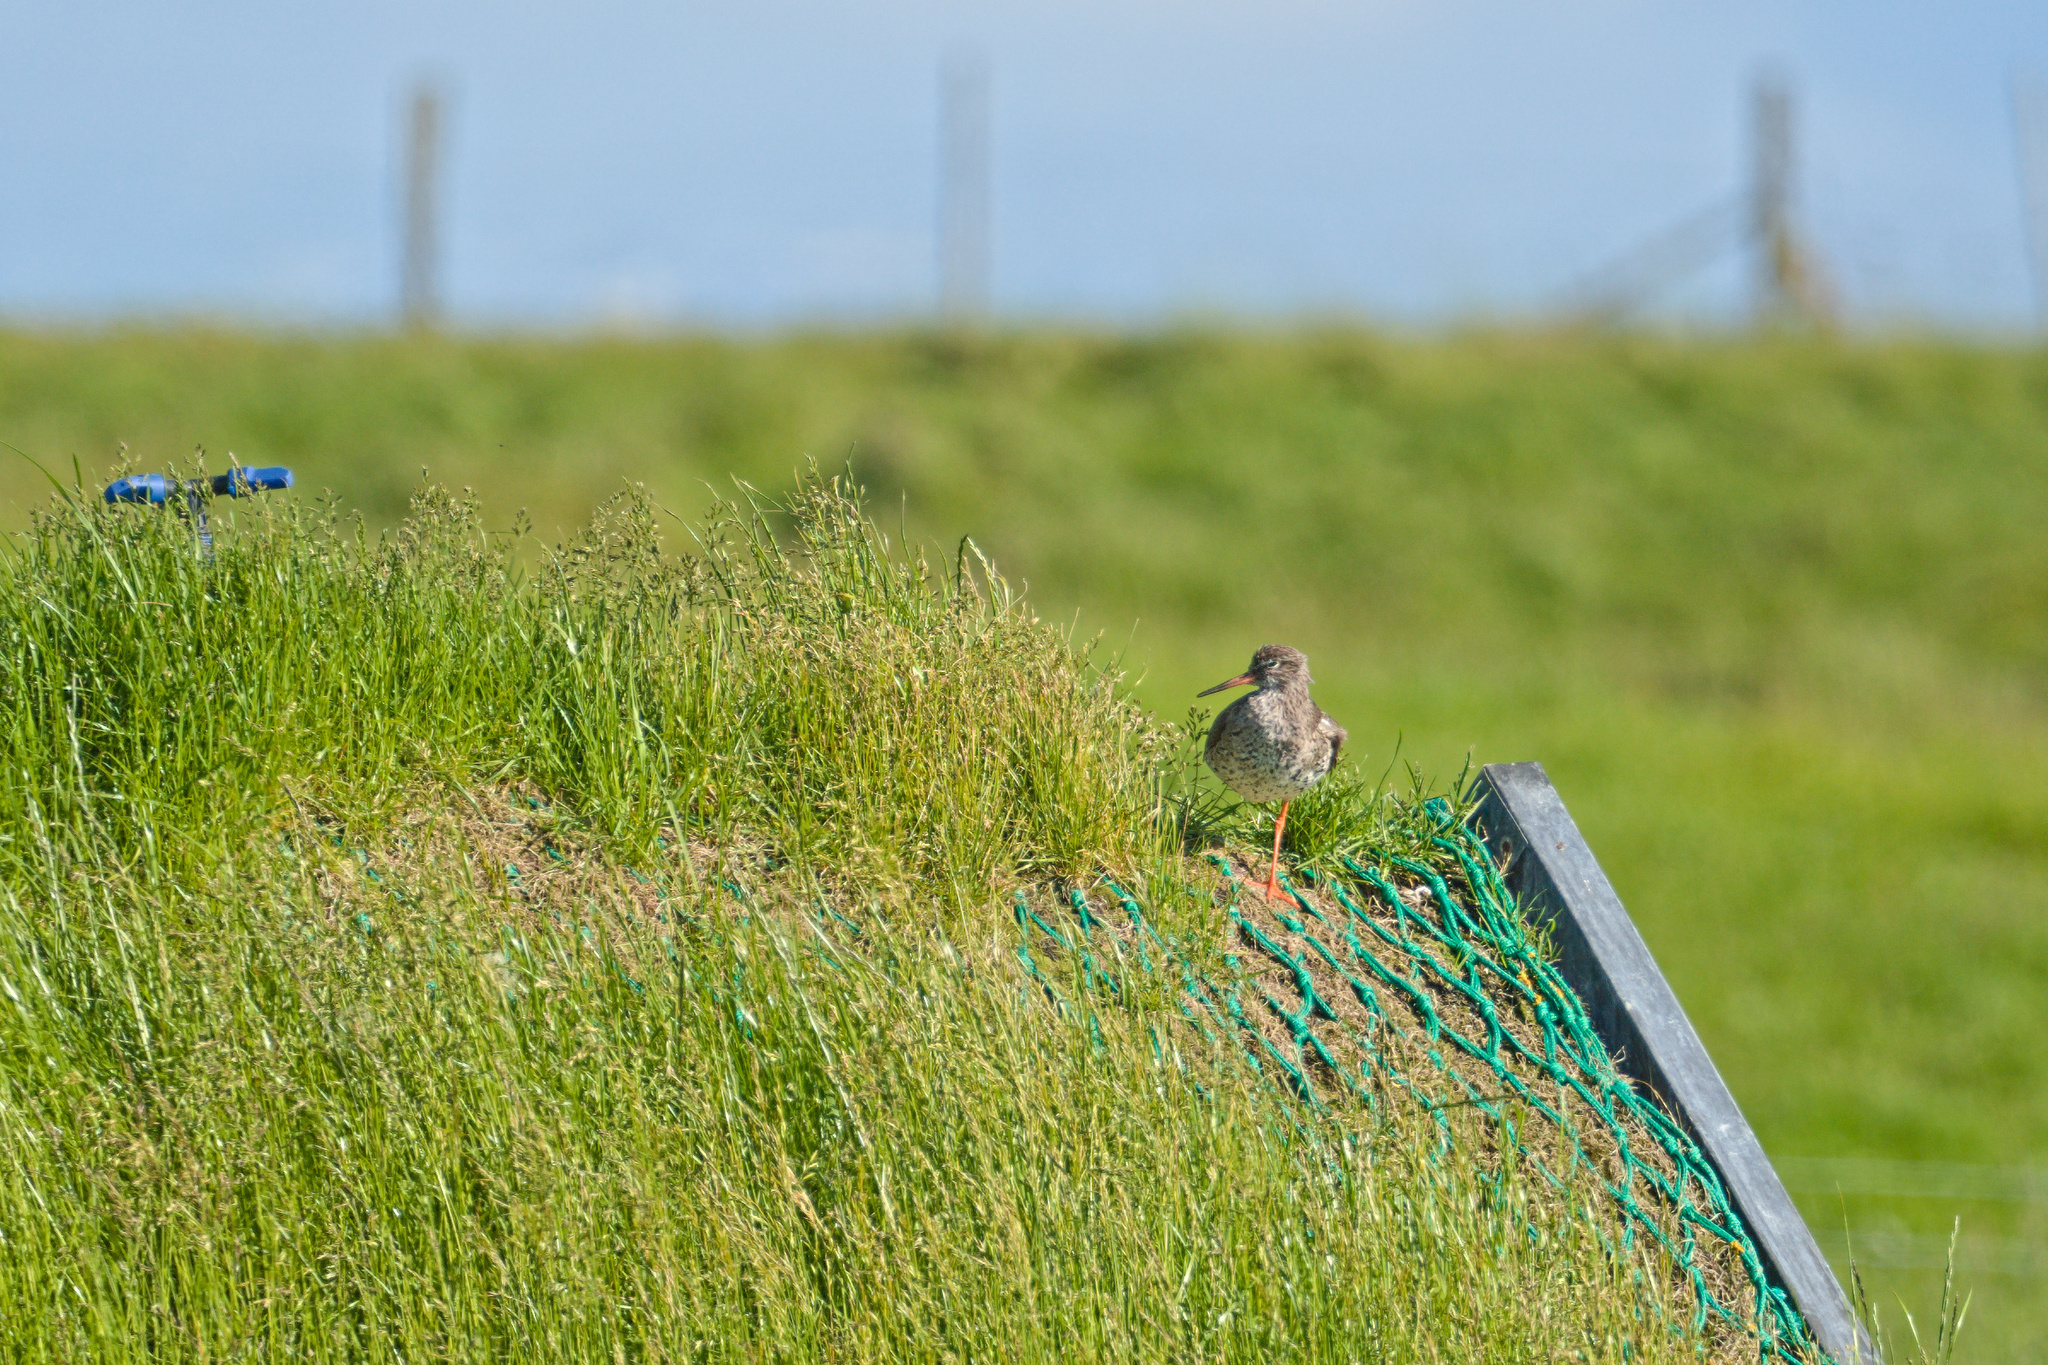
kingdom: Animalia
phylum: Chordata
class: Aves
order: Charadriiformes
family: Scolopacidae
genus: Tringa
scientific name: Tringa totanus
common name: Common redshank
